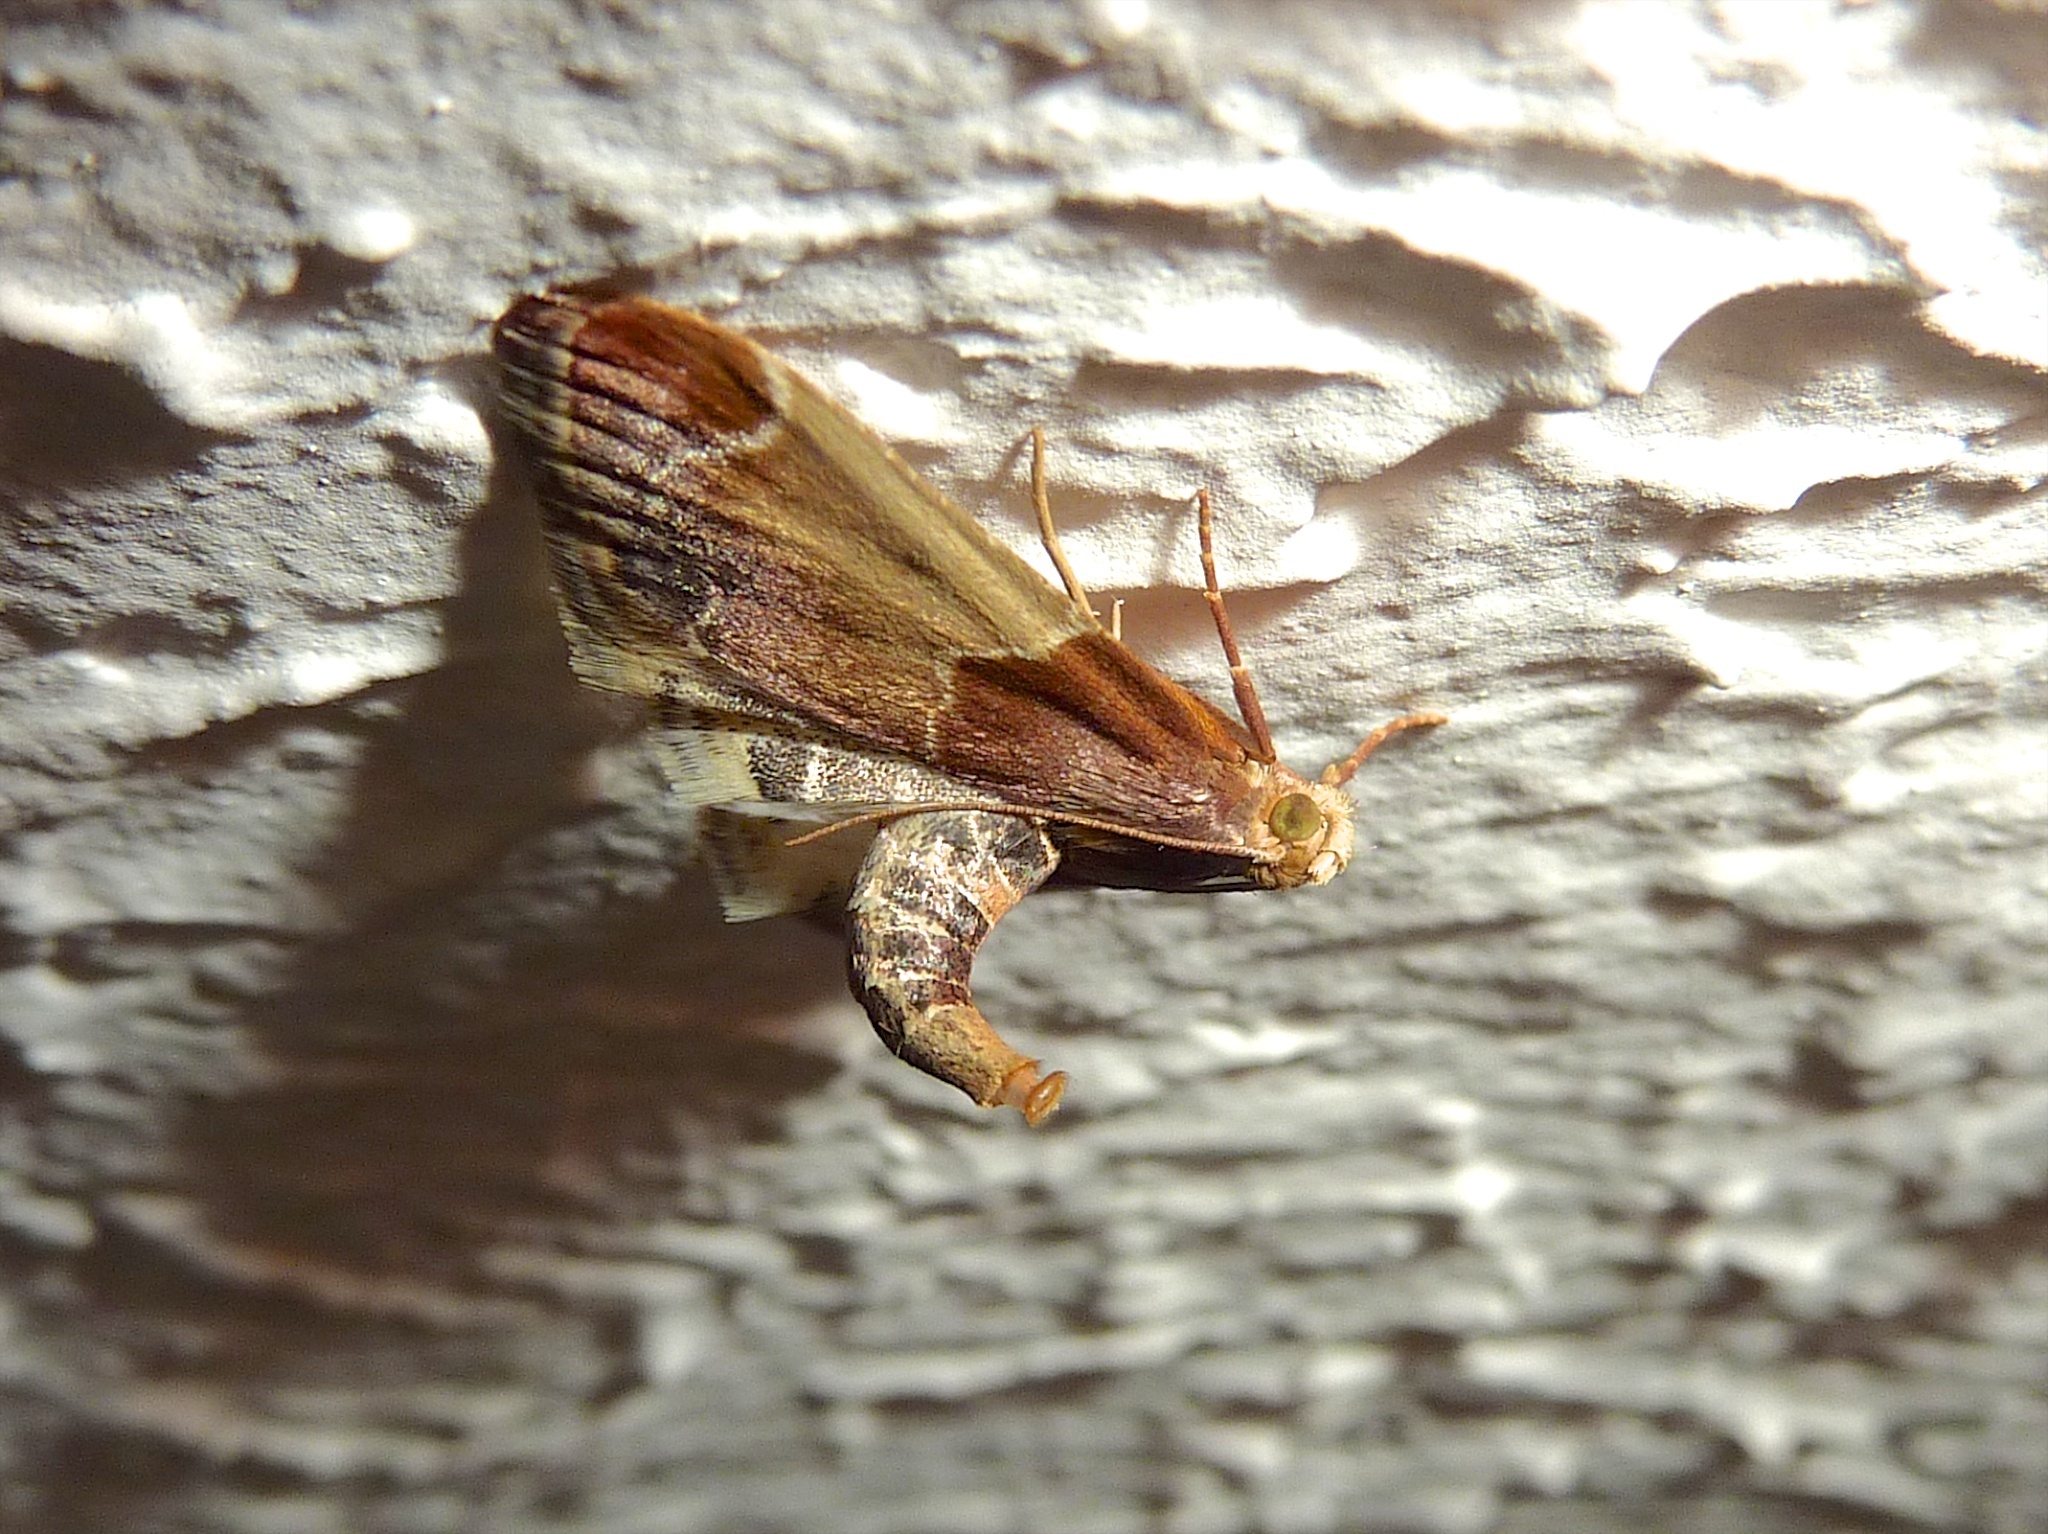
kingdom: Animalia
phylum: Arthropoda
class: Insecta
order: Lepidoptera
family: Pyralidae
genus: Pyralis
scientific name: Pyralis farinalis
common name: Meal moth
